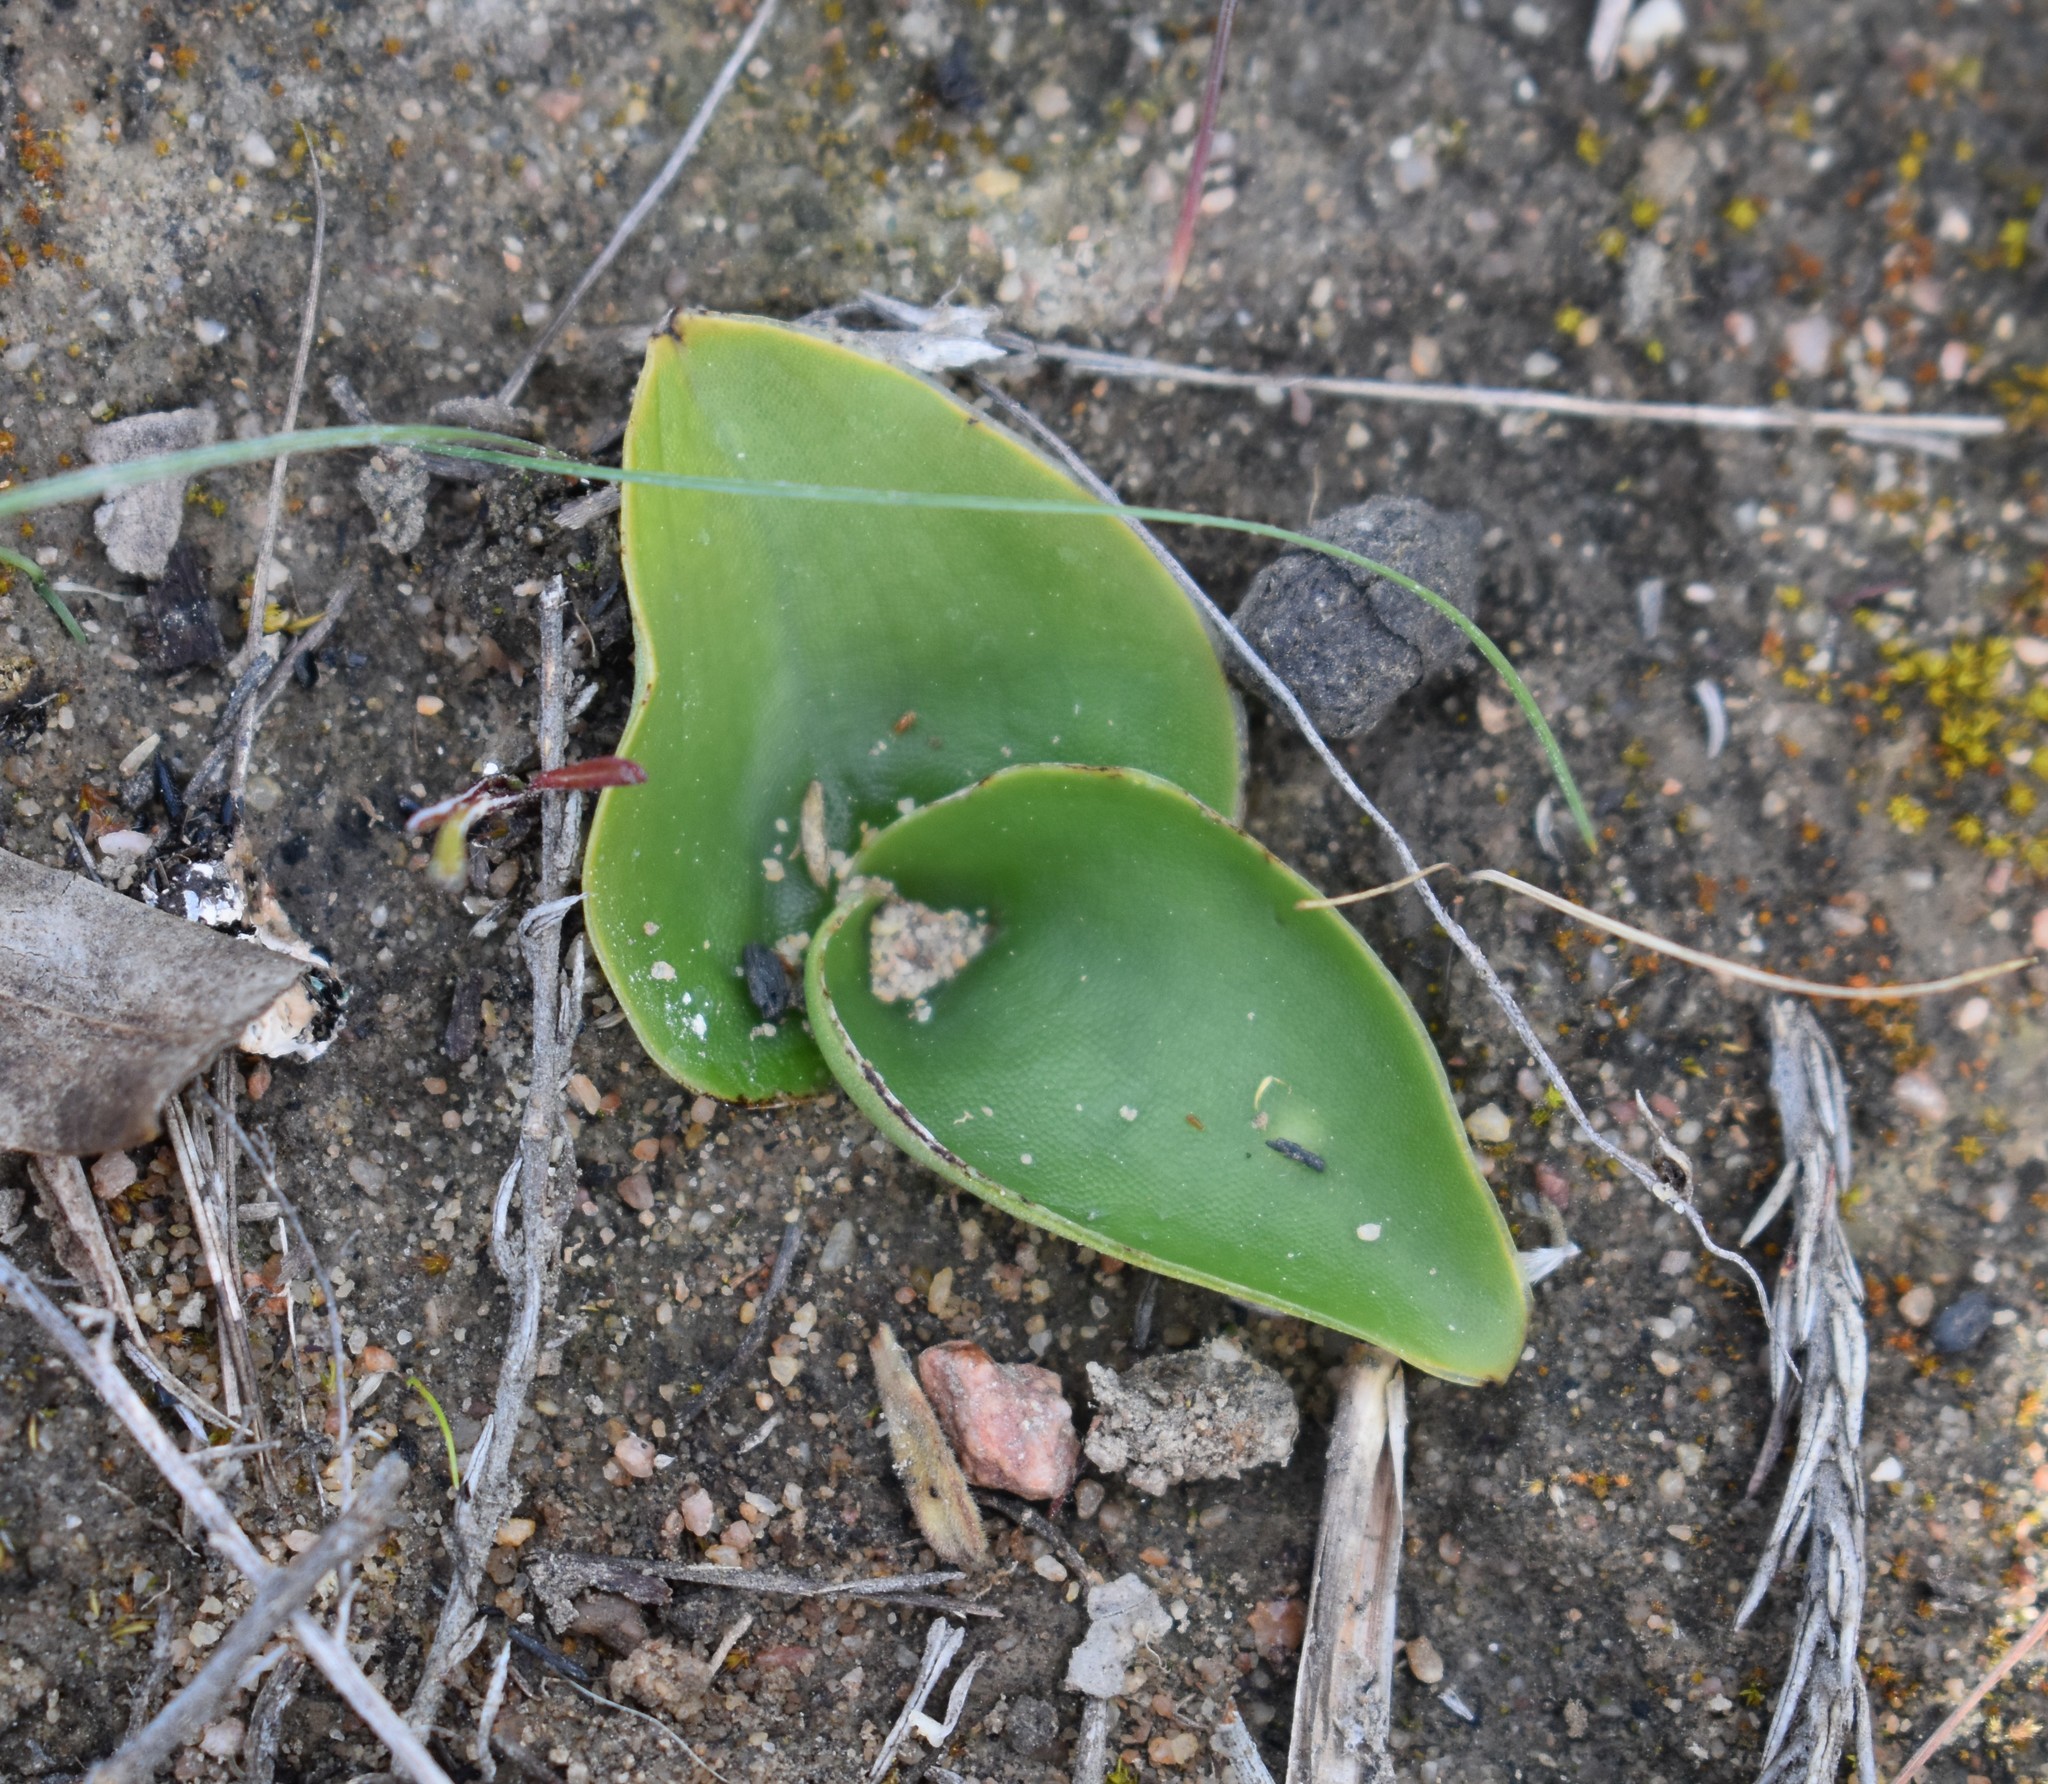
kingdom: Plantae
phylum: Tracheophyta
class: Liliopsida
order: Asparagales
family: Orchidaceae
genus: Satyrium
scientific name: Satyrium coriifolium
